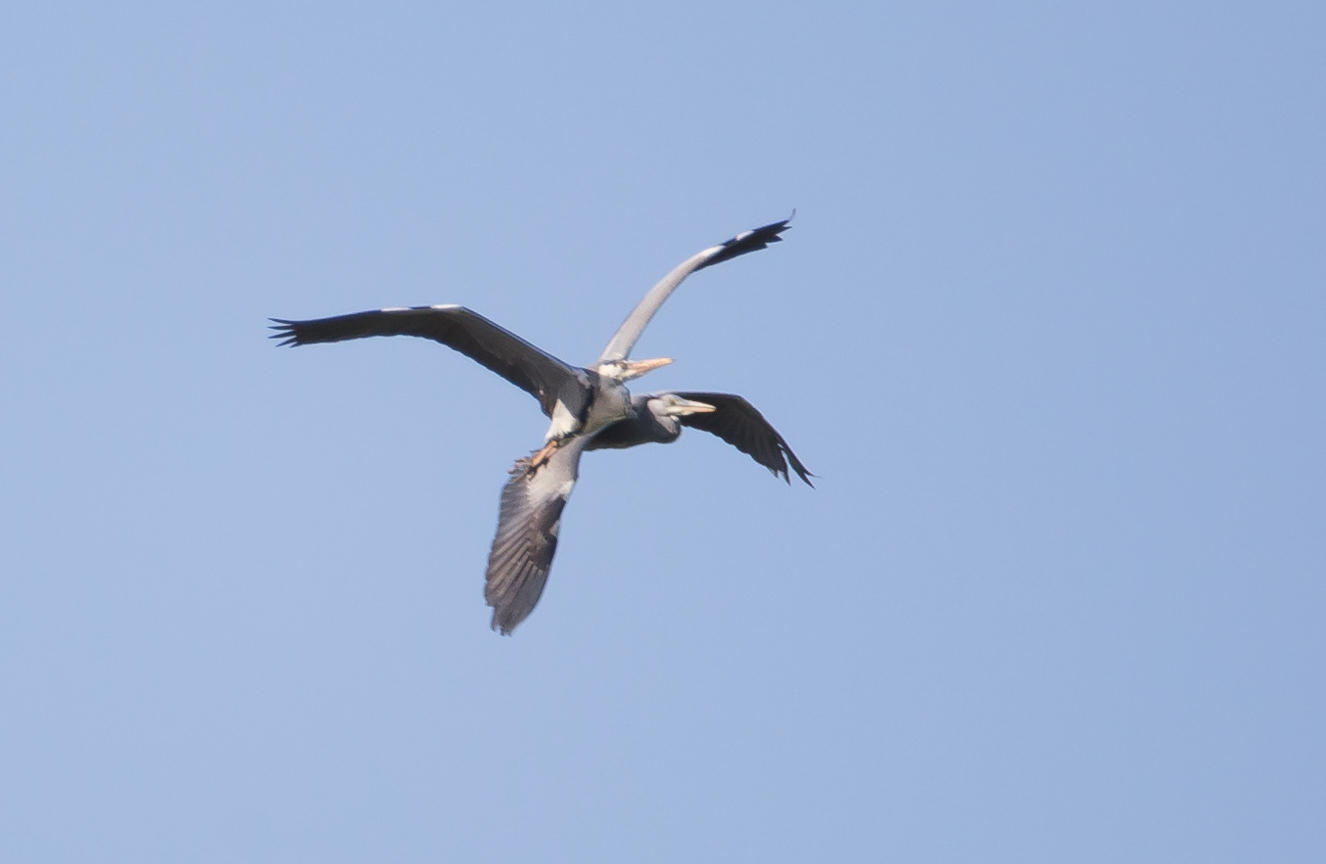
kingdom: Animalia
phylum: Chordata
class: Aves
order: Pelecaniformes
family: Ardeidae
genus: Ardea
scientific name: Ardea cinerea
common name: Grey heron
